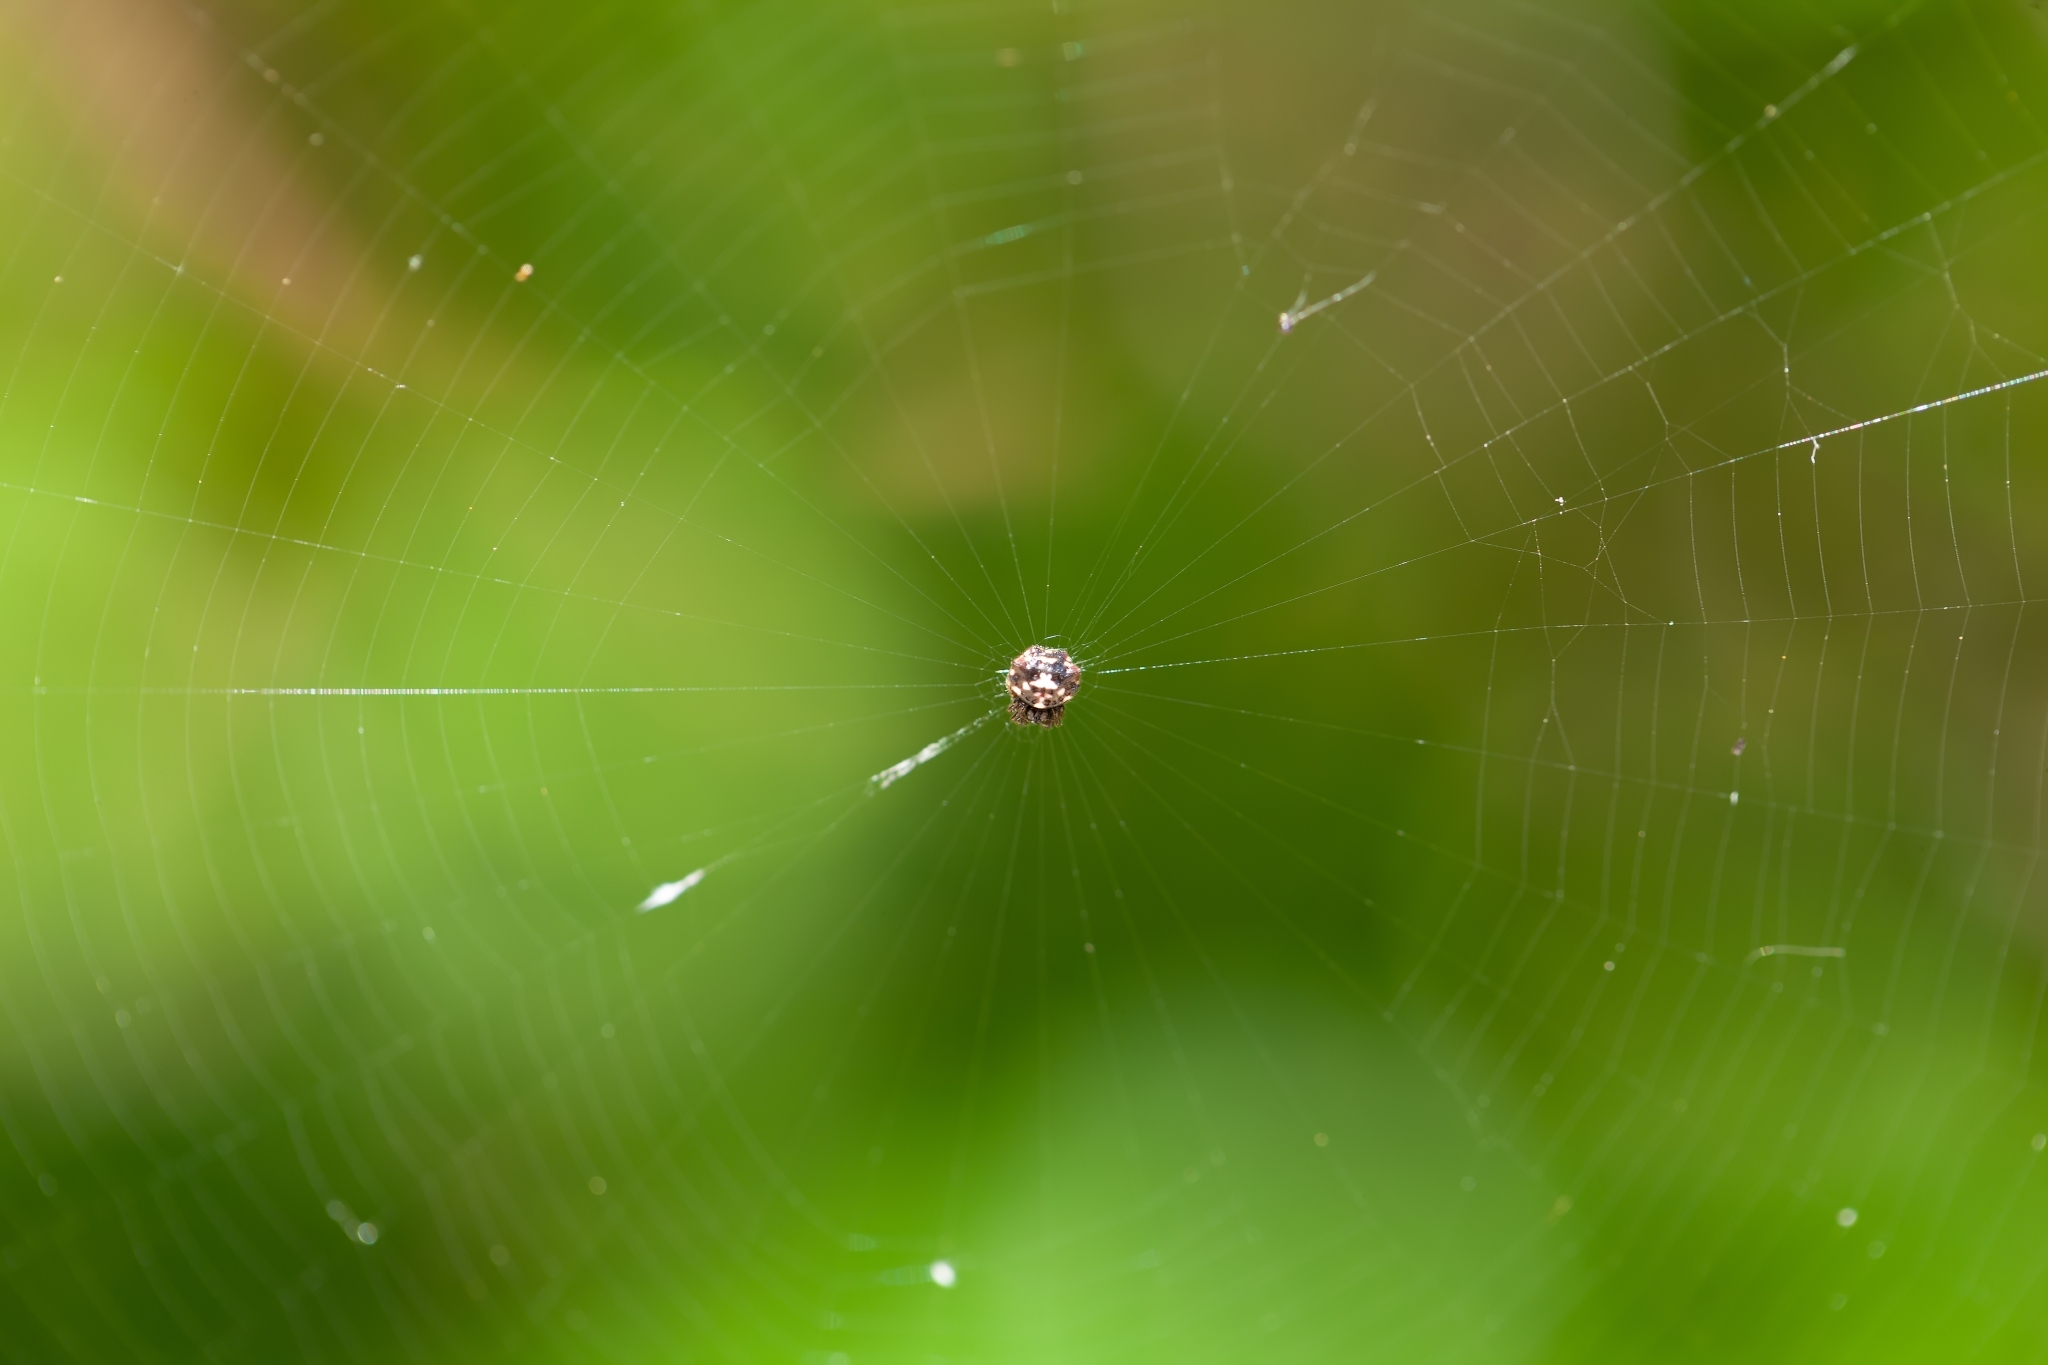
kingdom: Animalia
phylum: Arthropoda
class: Arachnida
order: Araneae
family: Araneidae
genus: Gasteracantha
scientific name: Gasteracantha cancriformis
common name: Orb weavers
